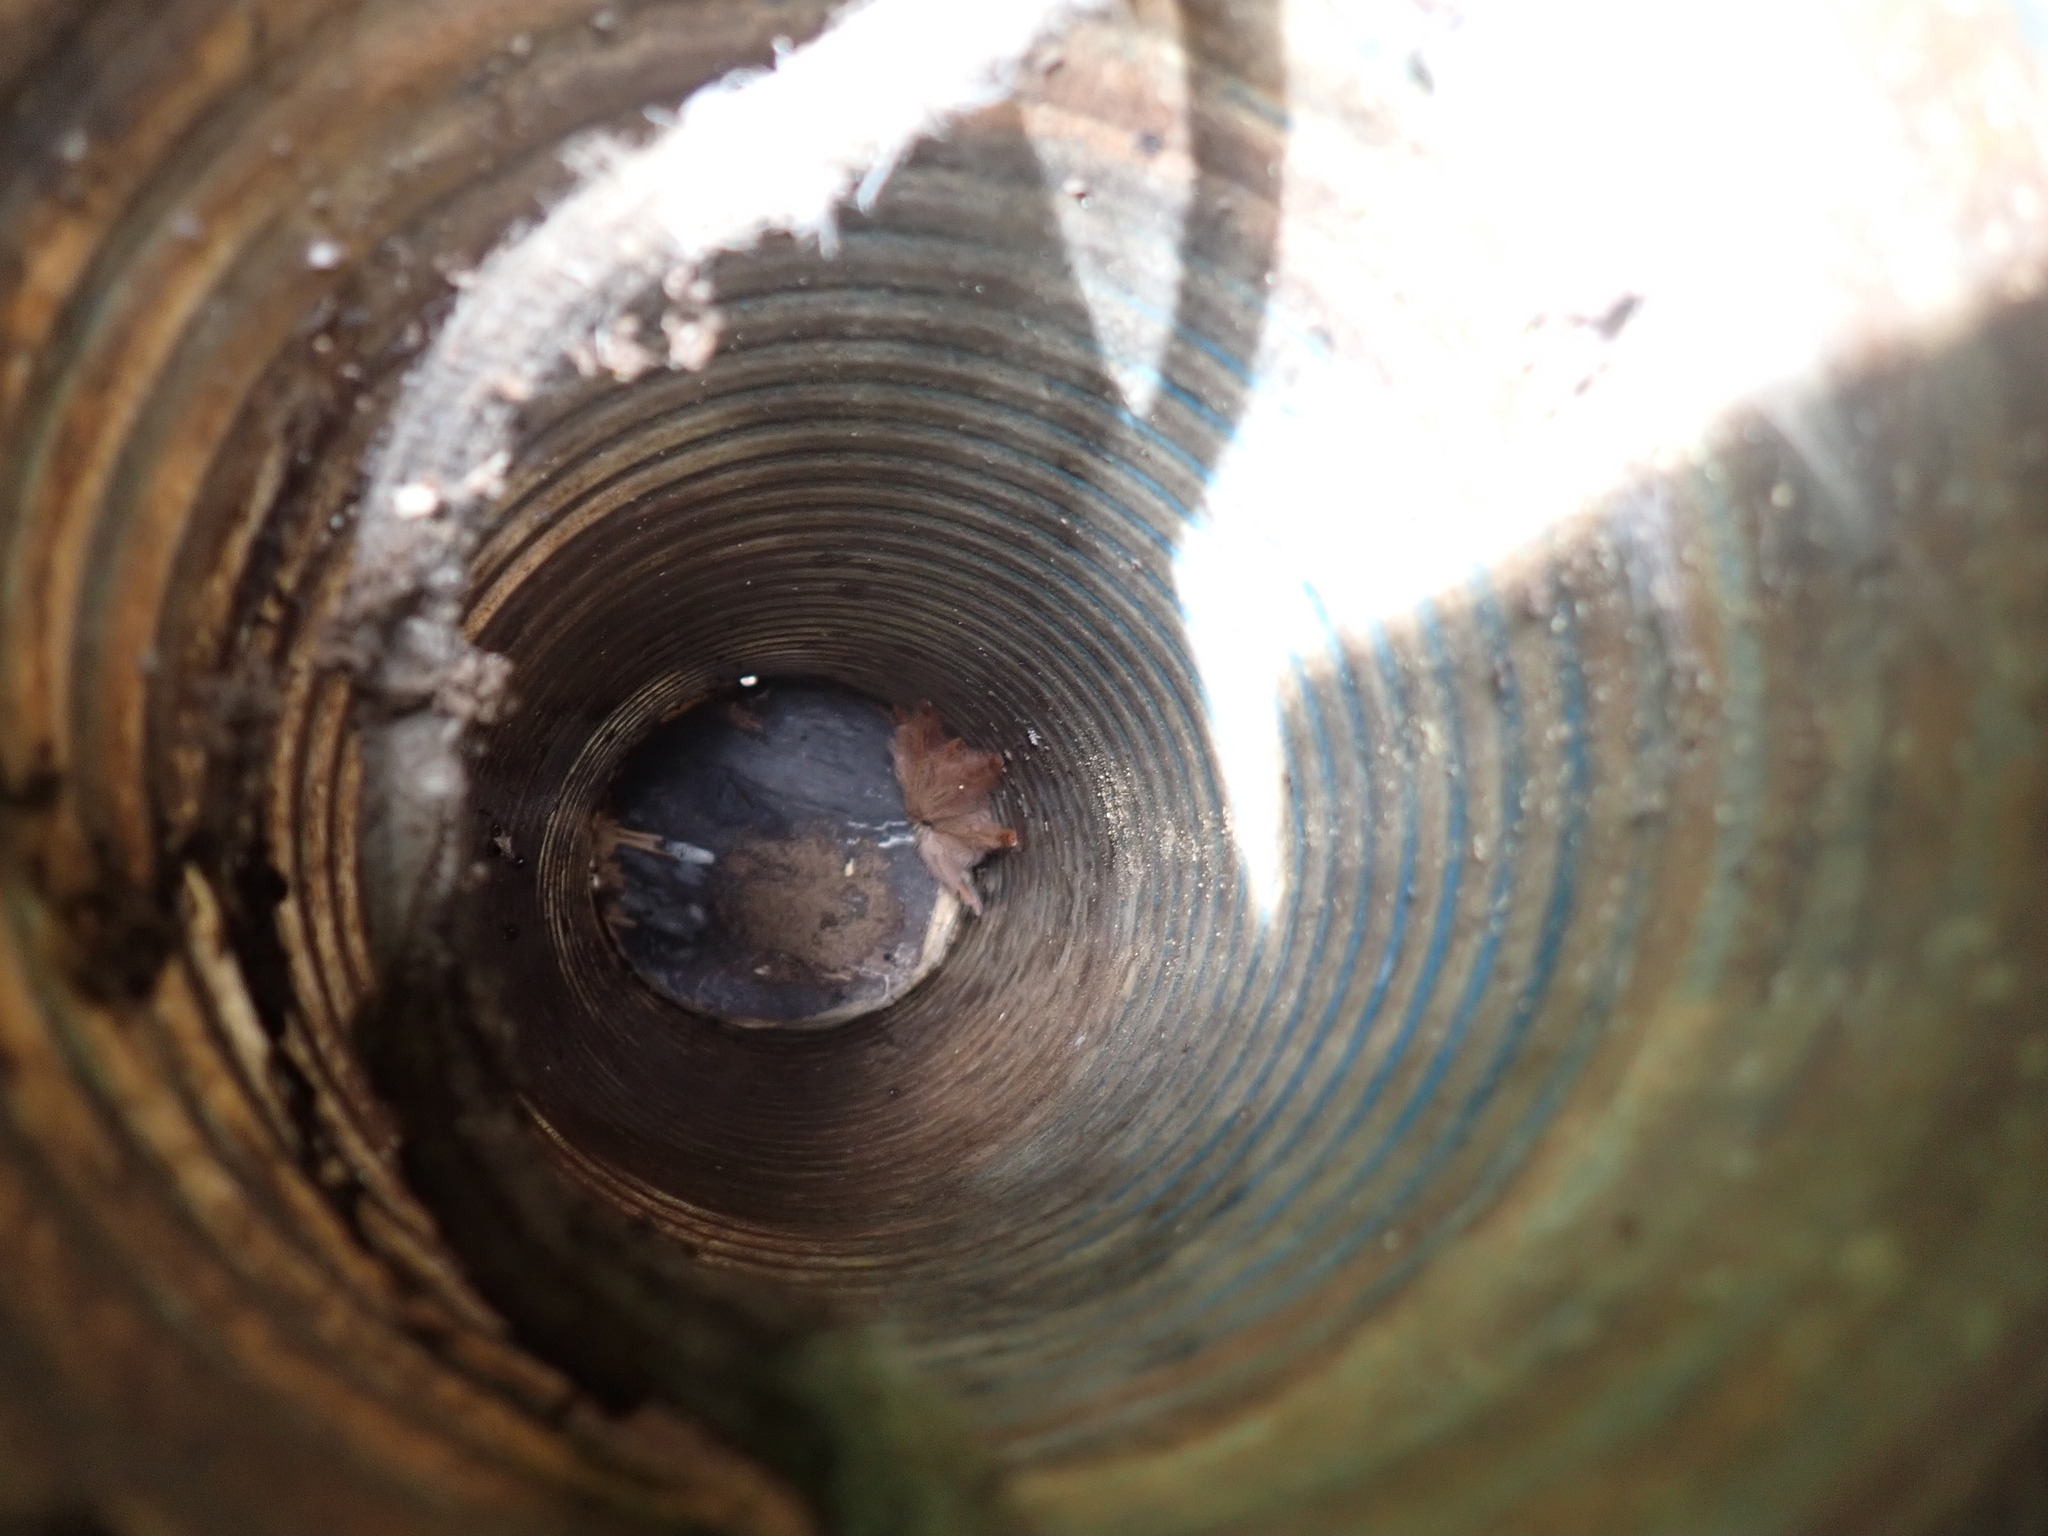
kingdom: Animalia
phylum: Arthropoda
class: Arachnida
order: Araneae
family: Theraphosidae
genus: Amazonius
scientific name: Amazonius germani
